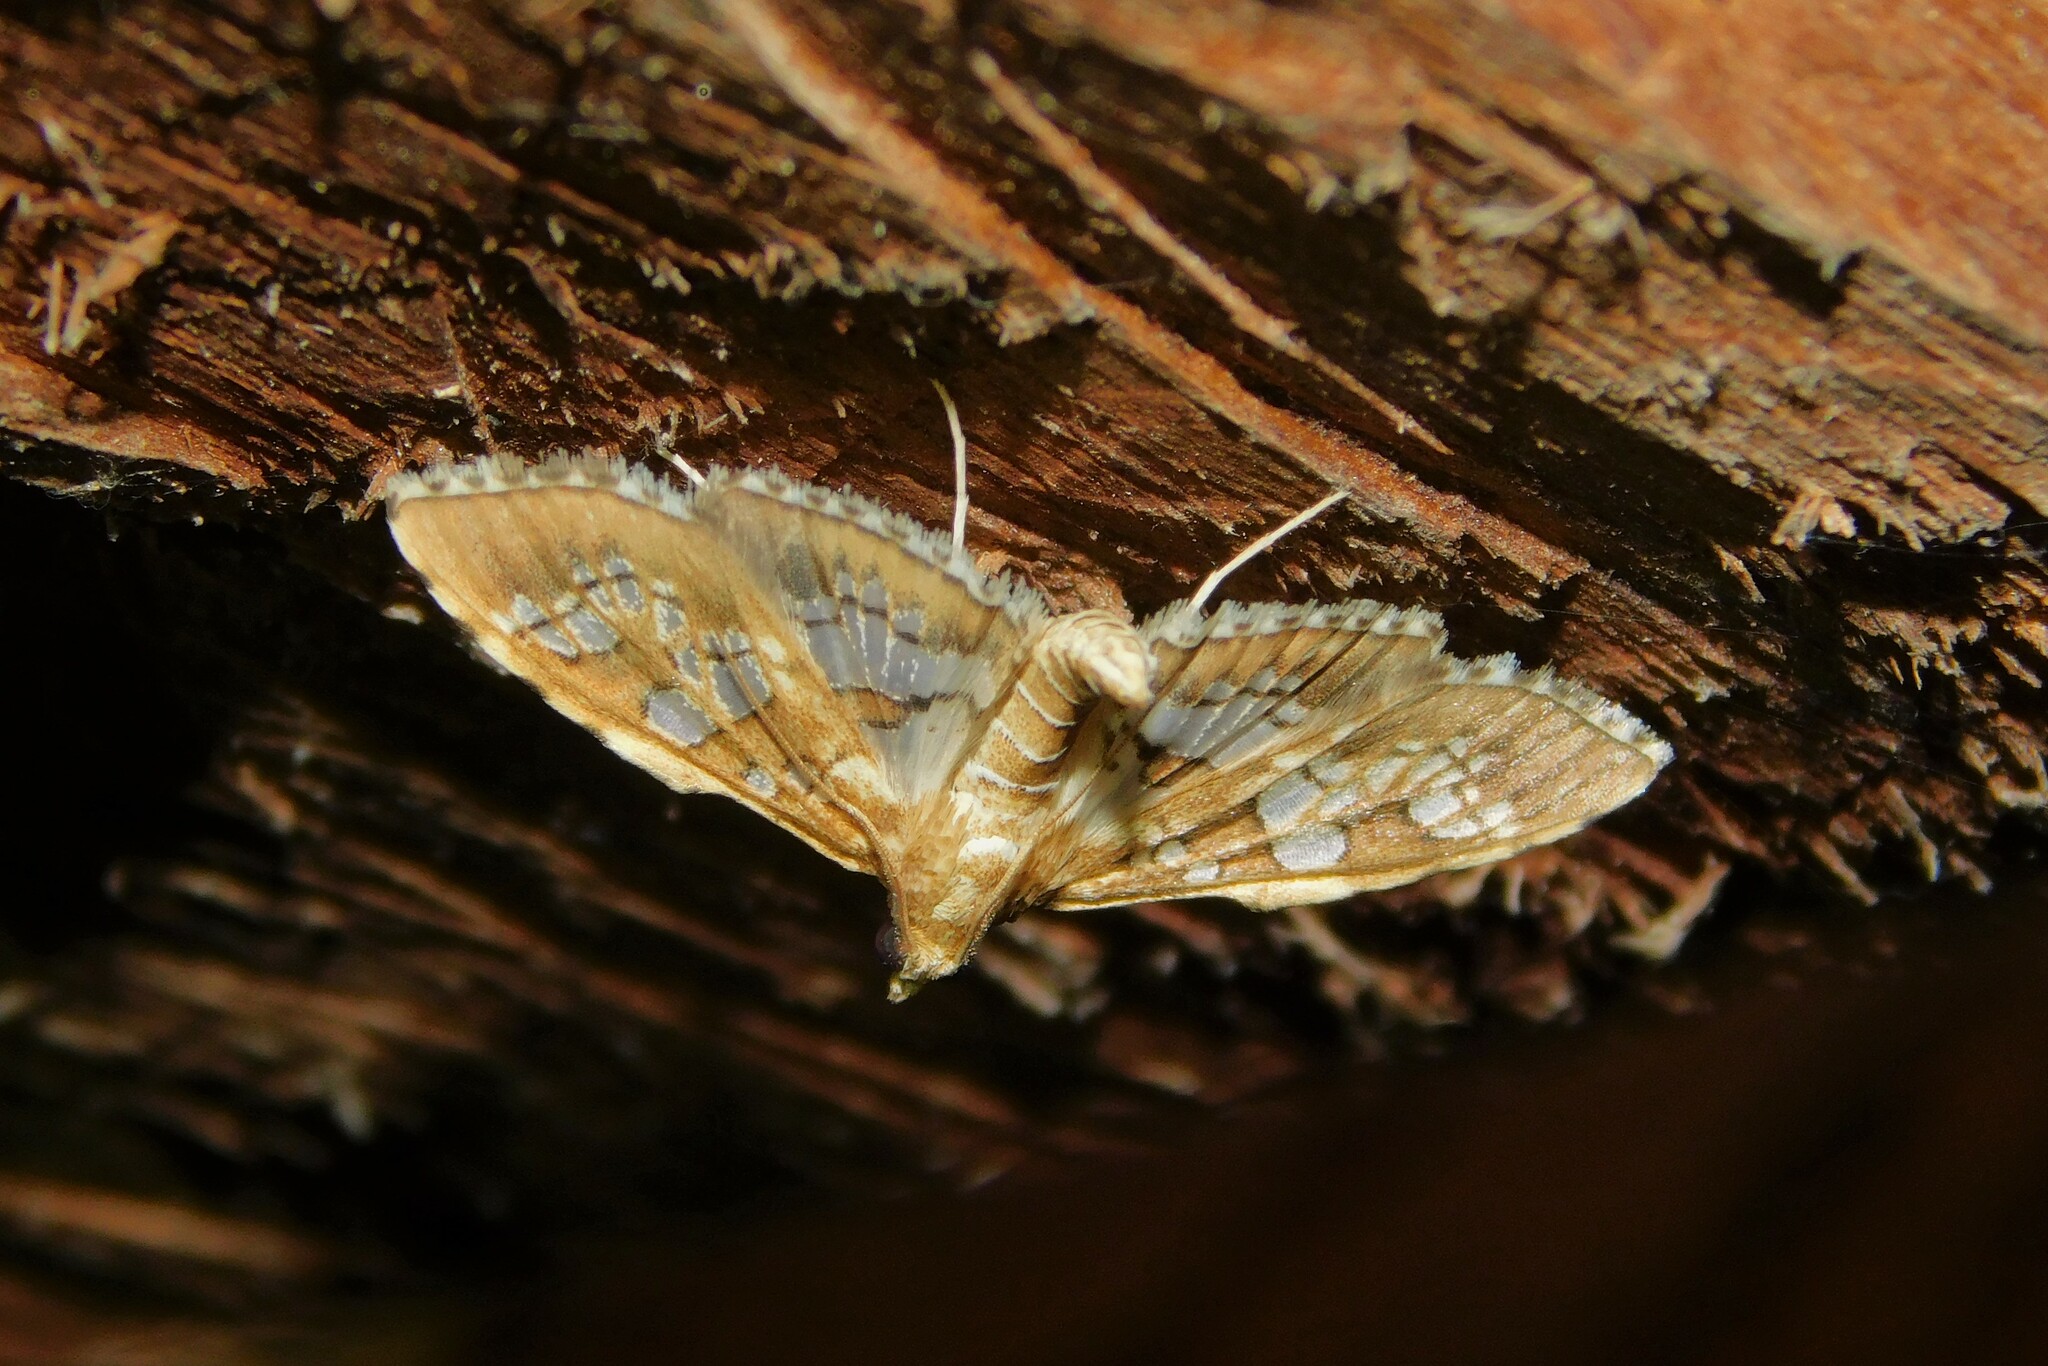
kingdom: Animalia
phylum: Arthropoda
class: Insecta
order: Lepidoptera
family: Crambidae
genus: Sameodes
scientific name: Sameodes cancellalis
